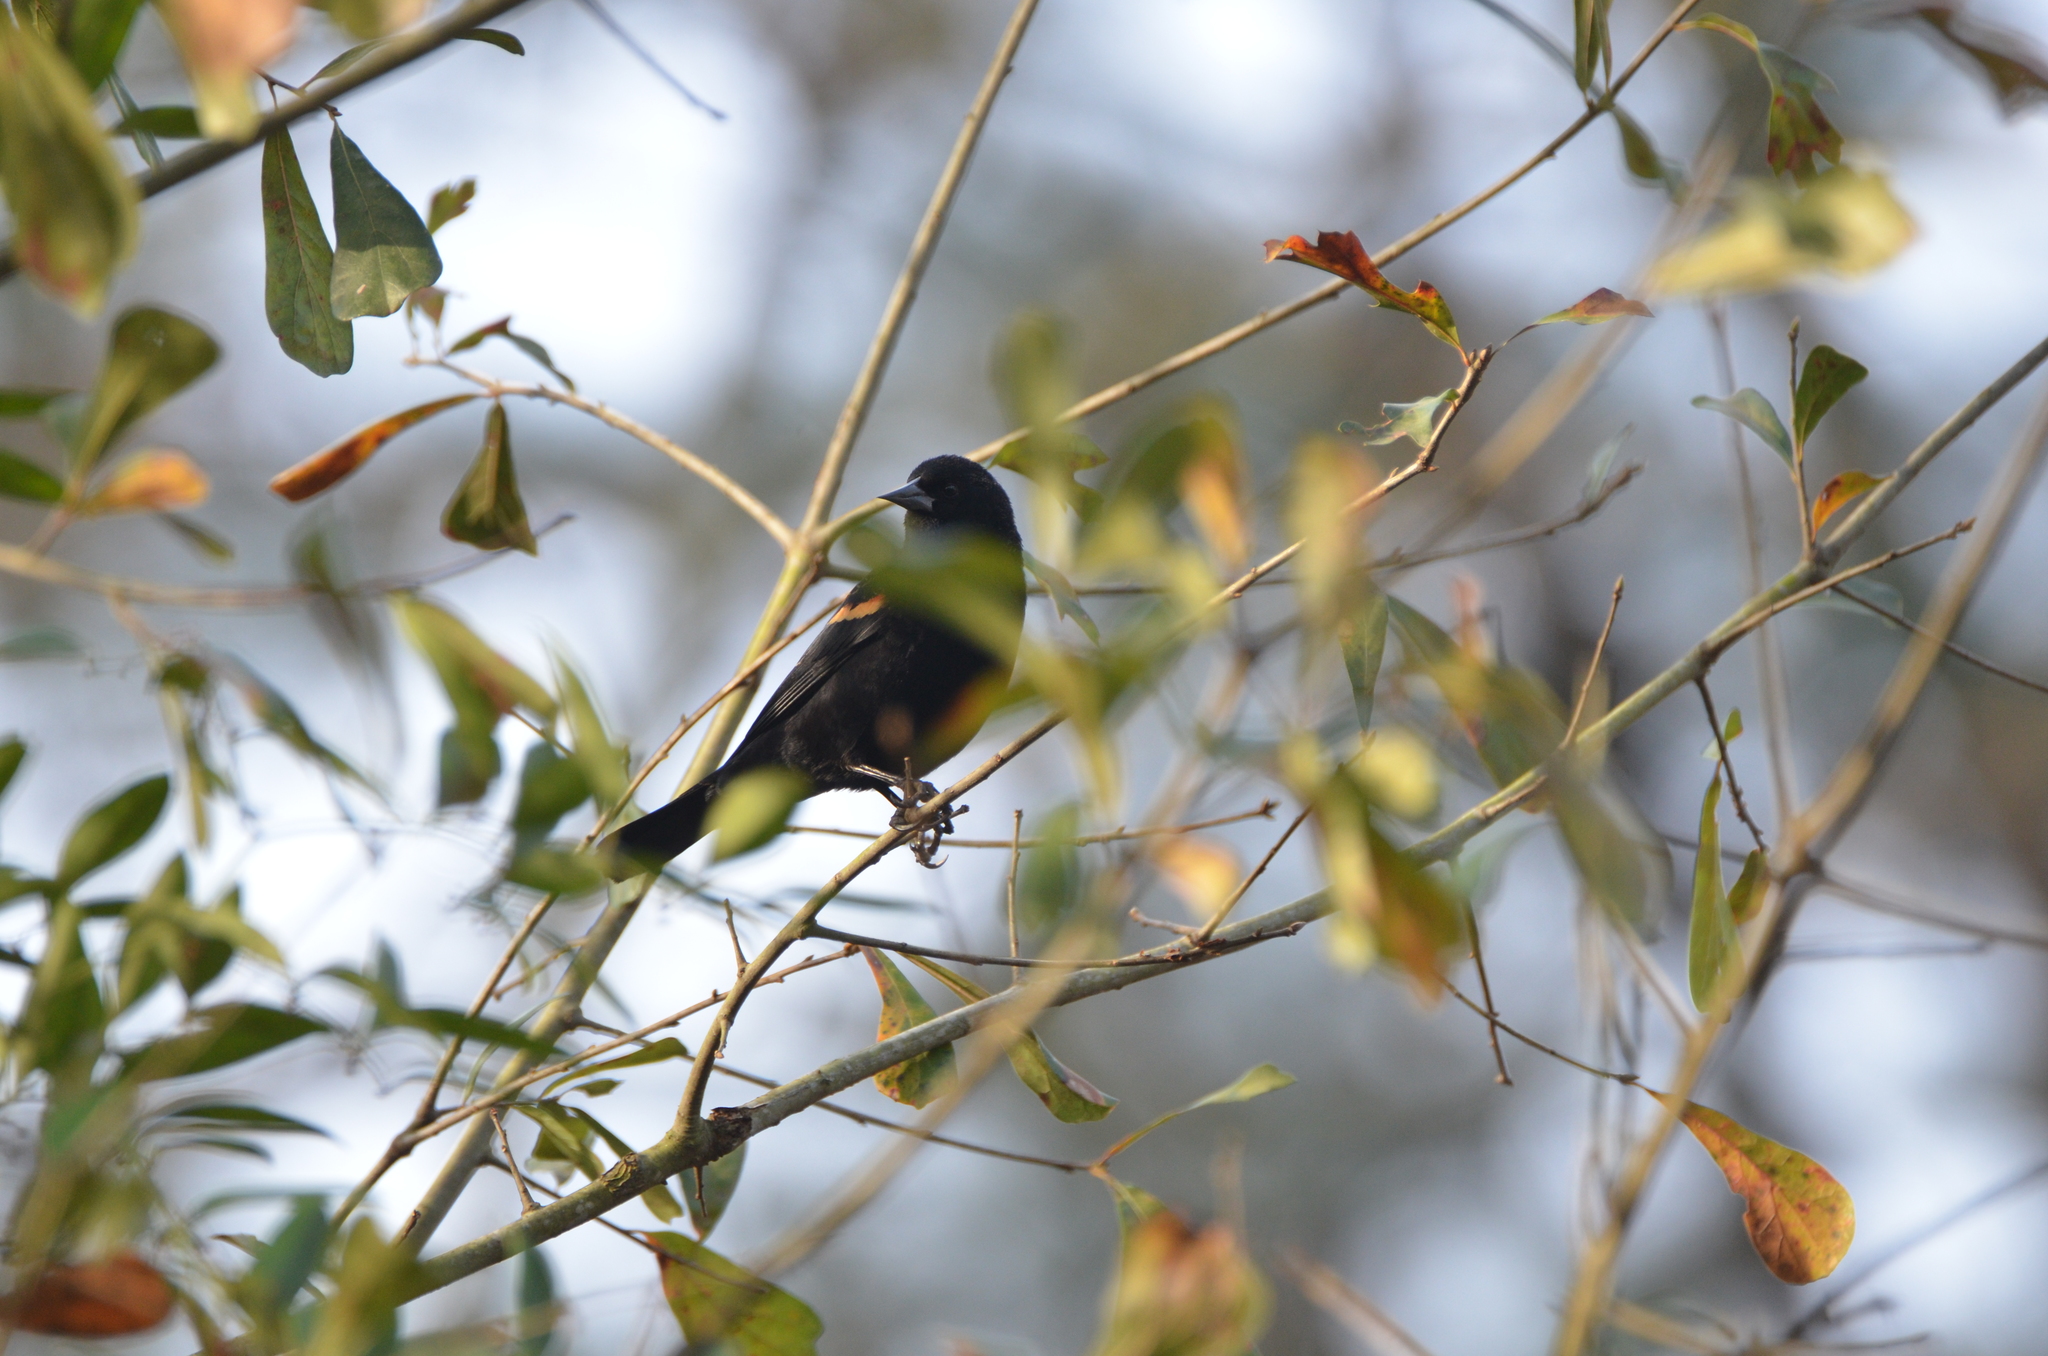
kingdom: Animalia
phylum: Chordata
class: Aves
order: Passeriformes
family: Icteridae
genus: Agelaius
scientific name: Agelaius phoeniceus
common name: Red-winged blackbird
